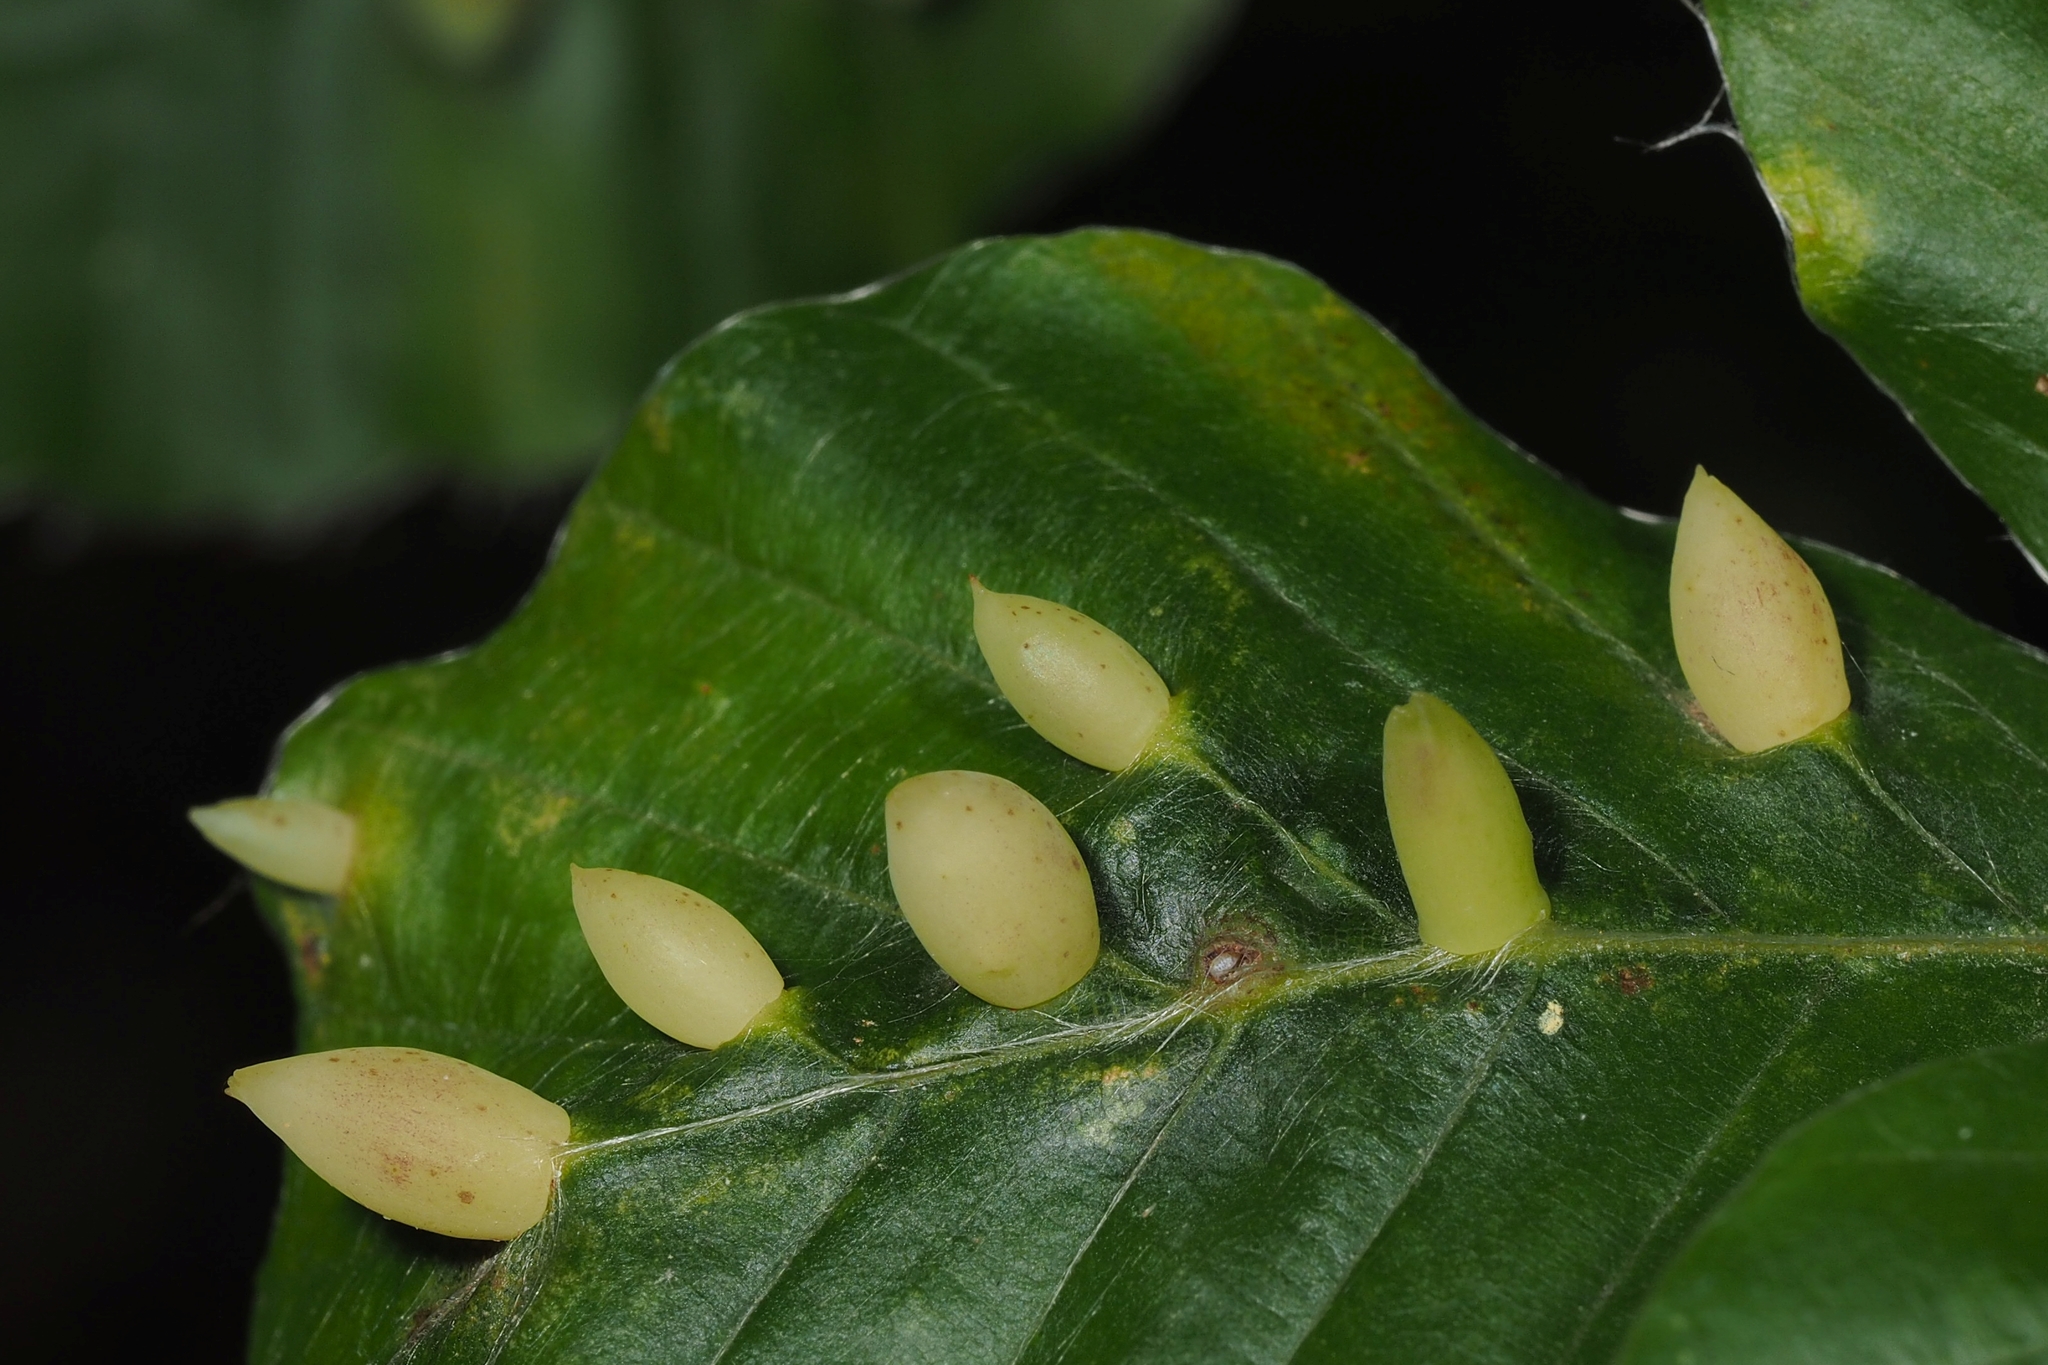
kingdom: Animalia
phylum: Arthropoda
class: Insecta
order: Diptera
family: Cecidomyiidae
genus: Mikiola
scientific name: Mikiola fagi
